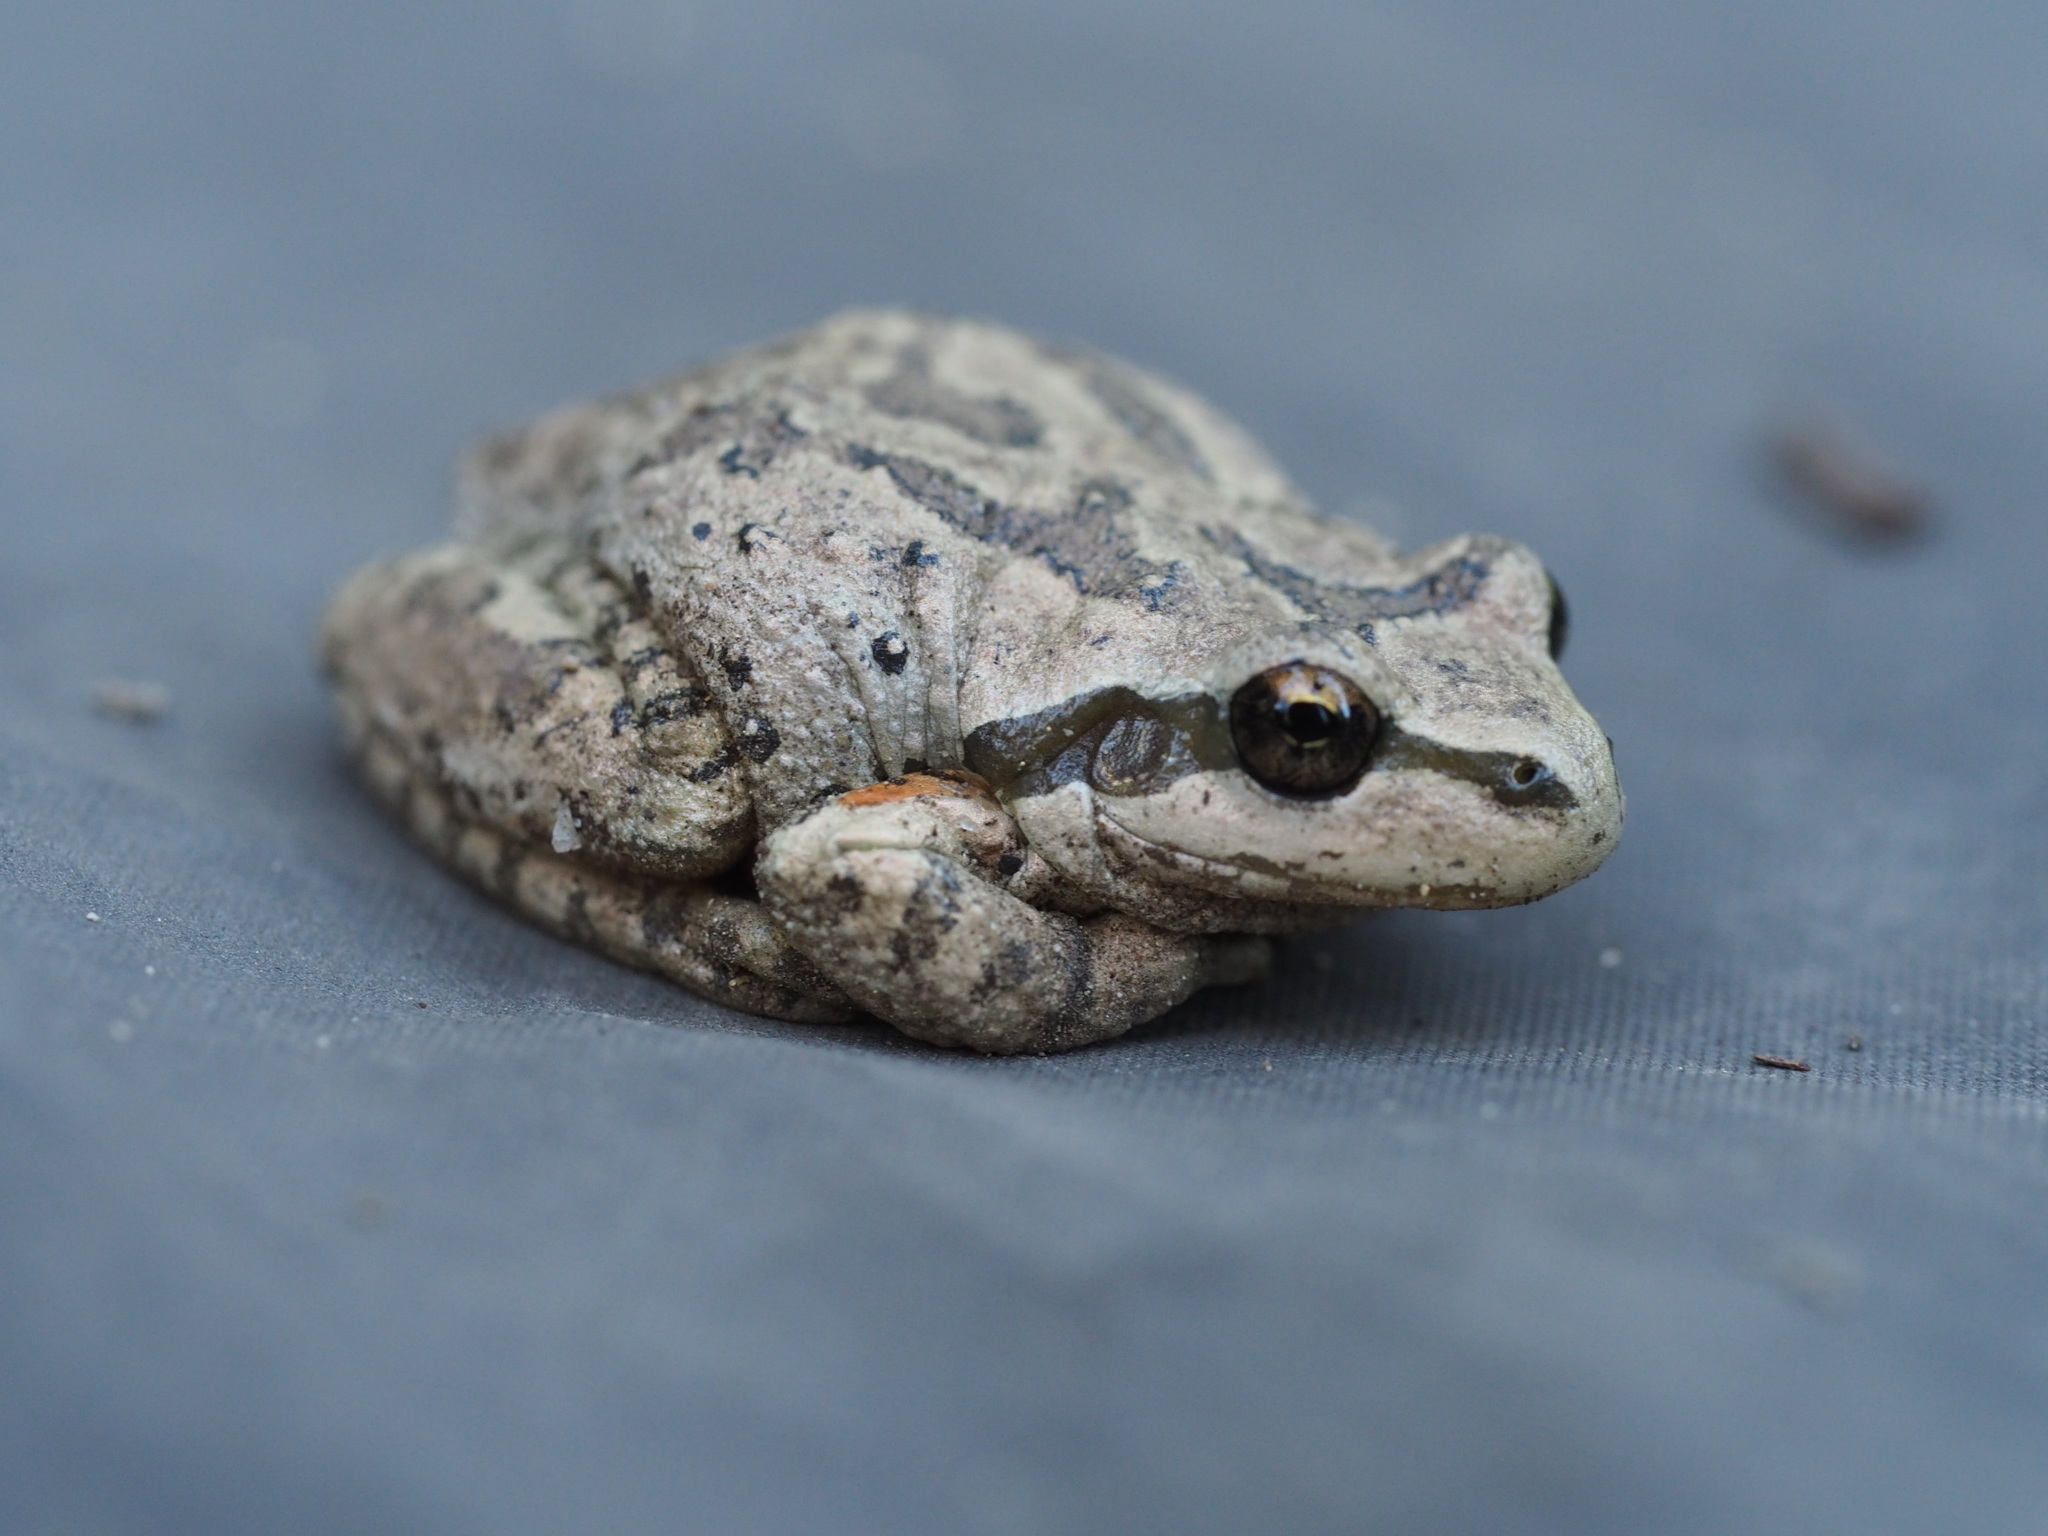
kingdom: Animalia
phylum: Chordata
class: Amphibia
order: Anura
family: Hylidae
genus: Pseudacris
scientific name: Pseudacris regilla
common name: Pacific chorus frog
